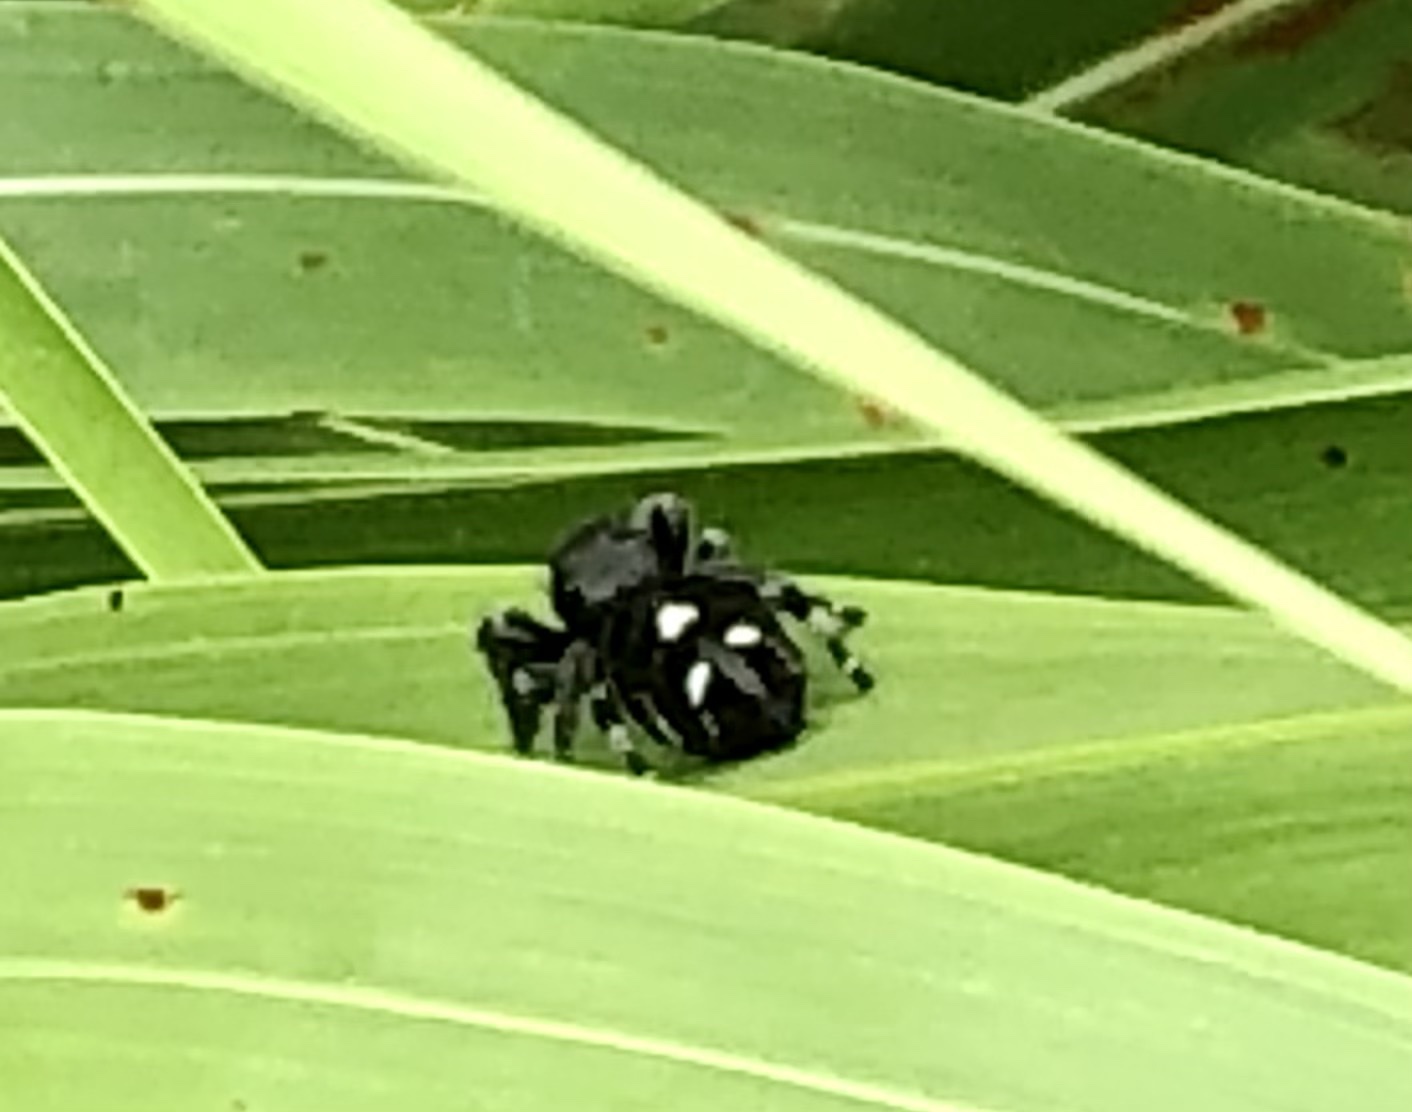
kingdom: Animalia
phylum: Arthropoda
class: Arachnida
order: Araneae
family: Salticidae
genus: Phidippus
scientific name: Phidippus audax
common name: Bold jumper
